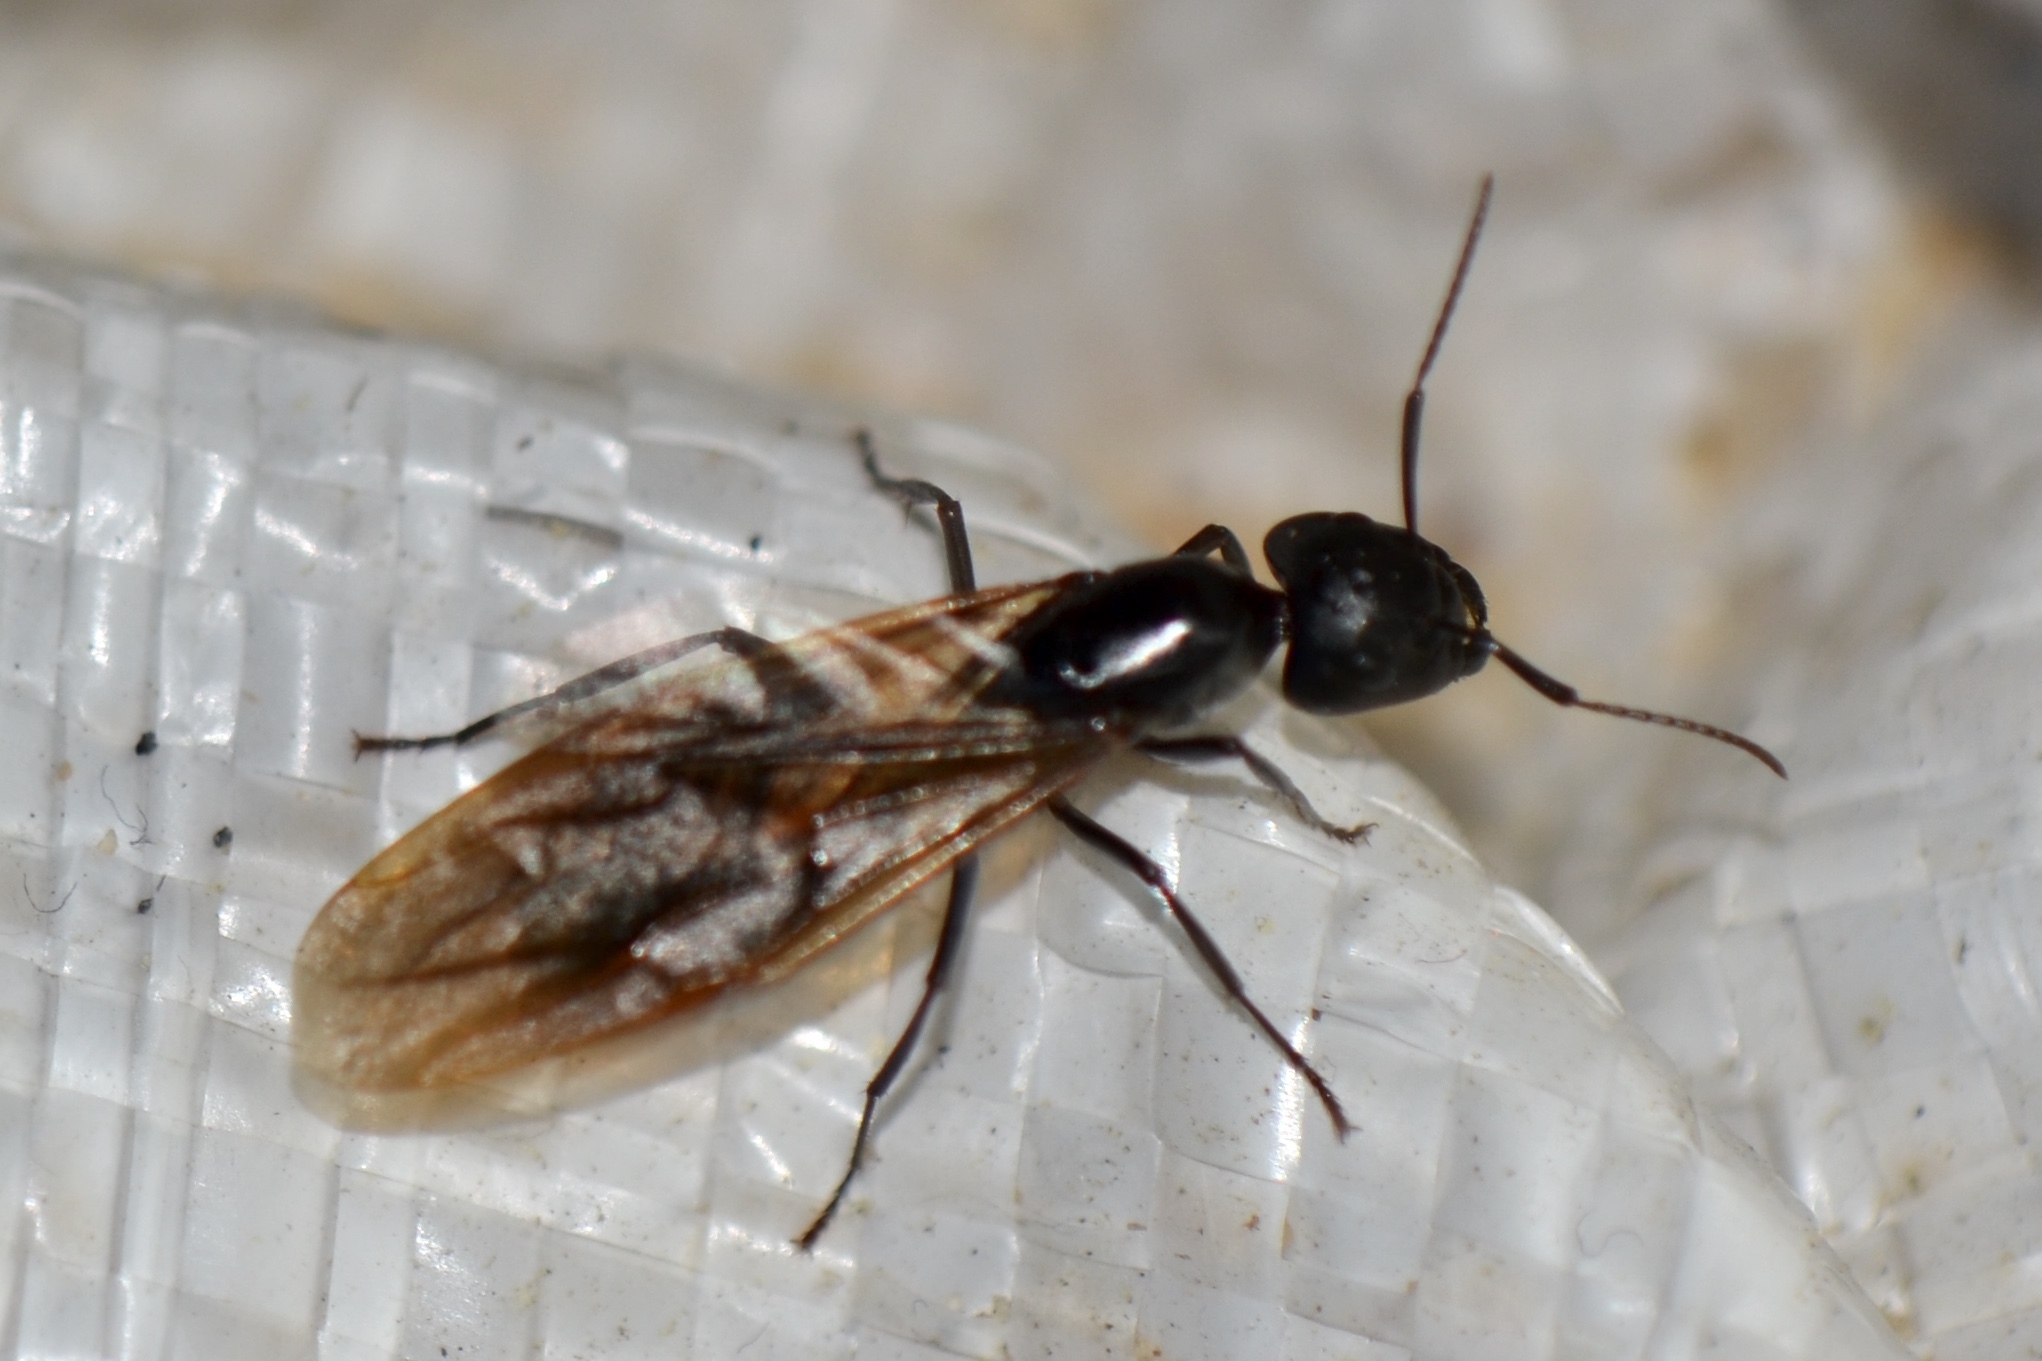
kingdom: Animalia
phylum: Arthropoda
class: Insecta
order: Hymenoptera
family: Formicidae
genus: Camponotus
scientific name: Camponotus pennsylvanicus
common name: Black carpenter ant
